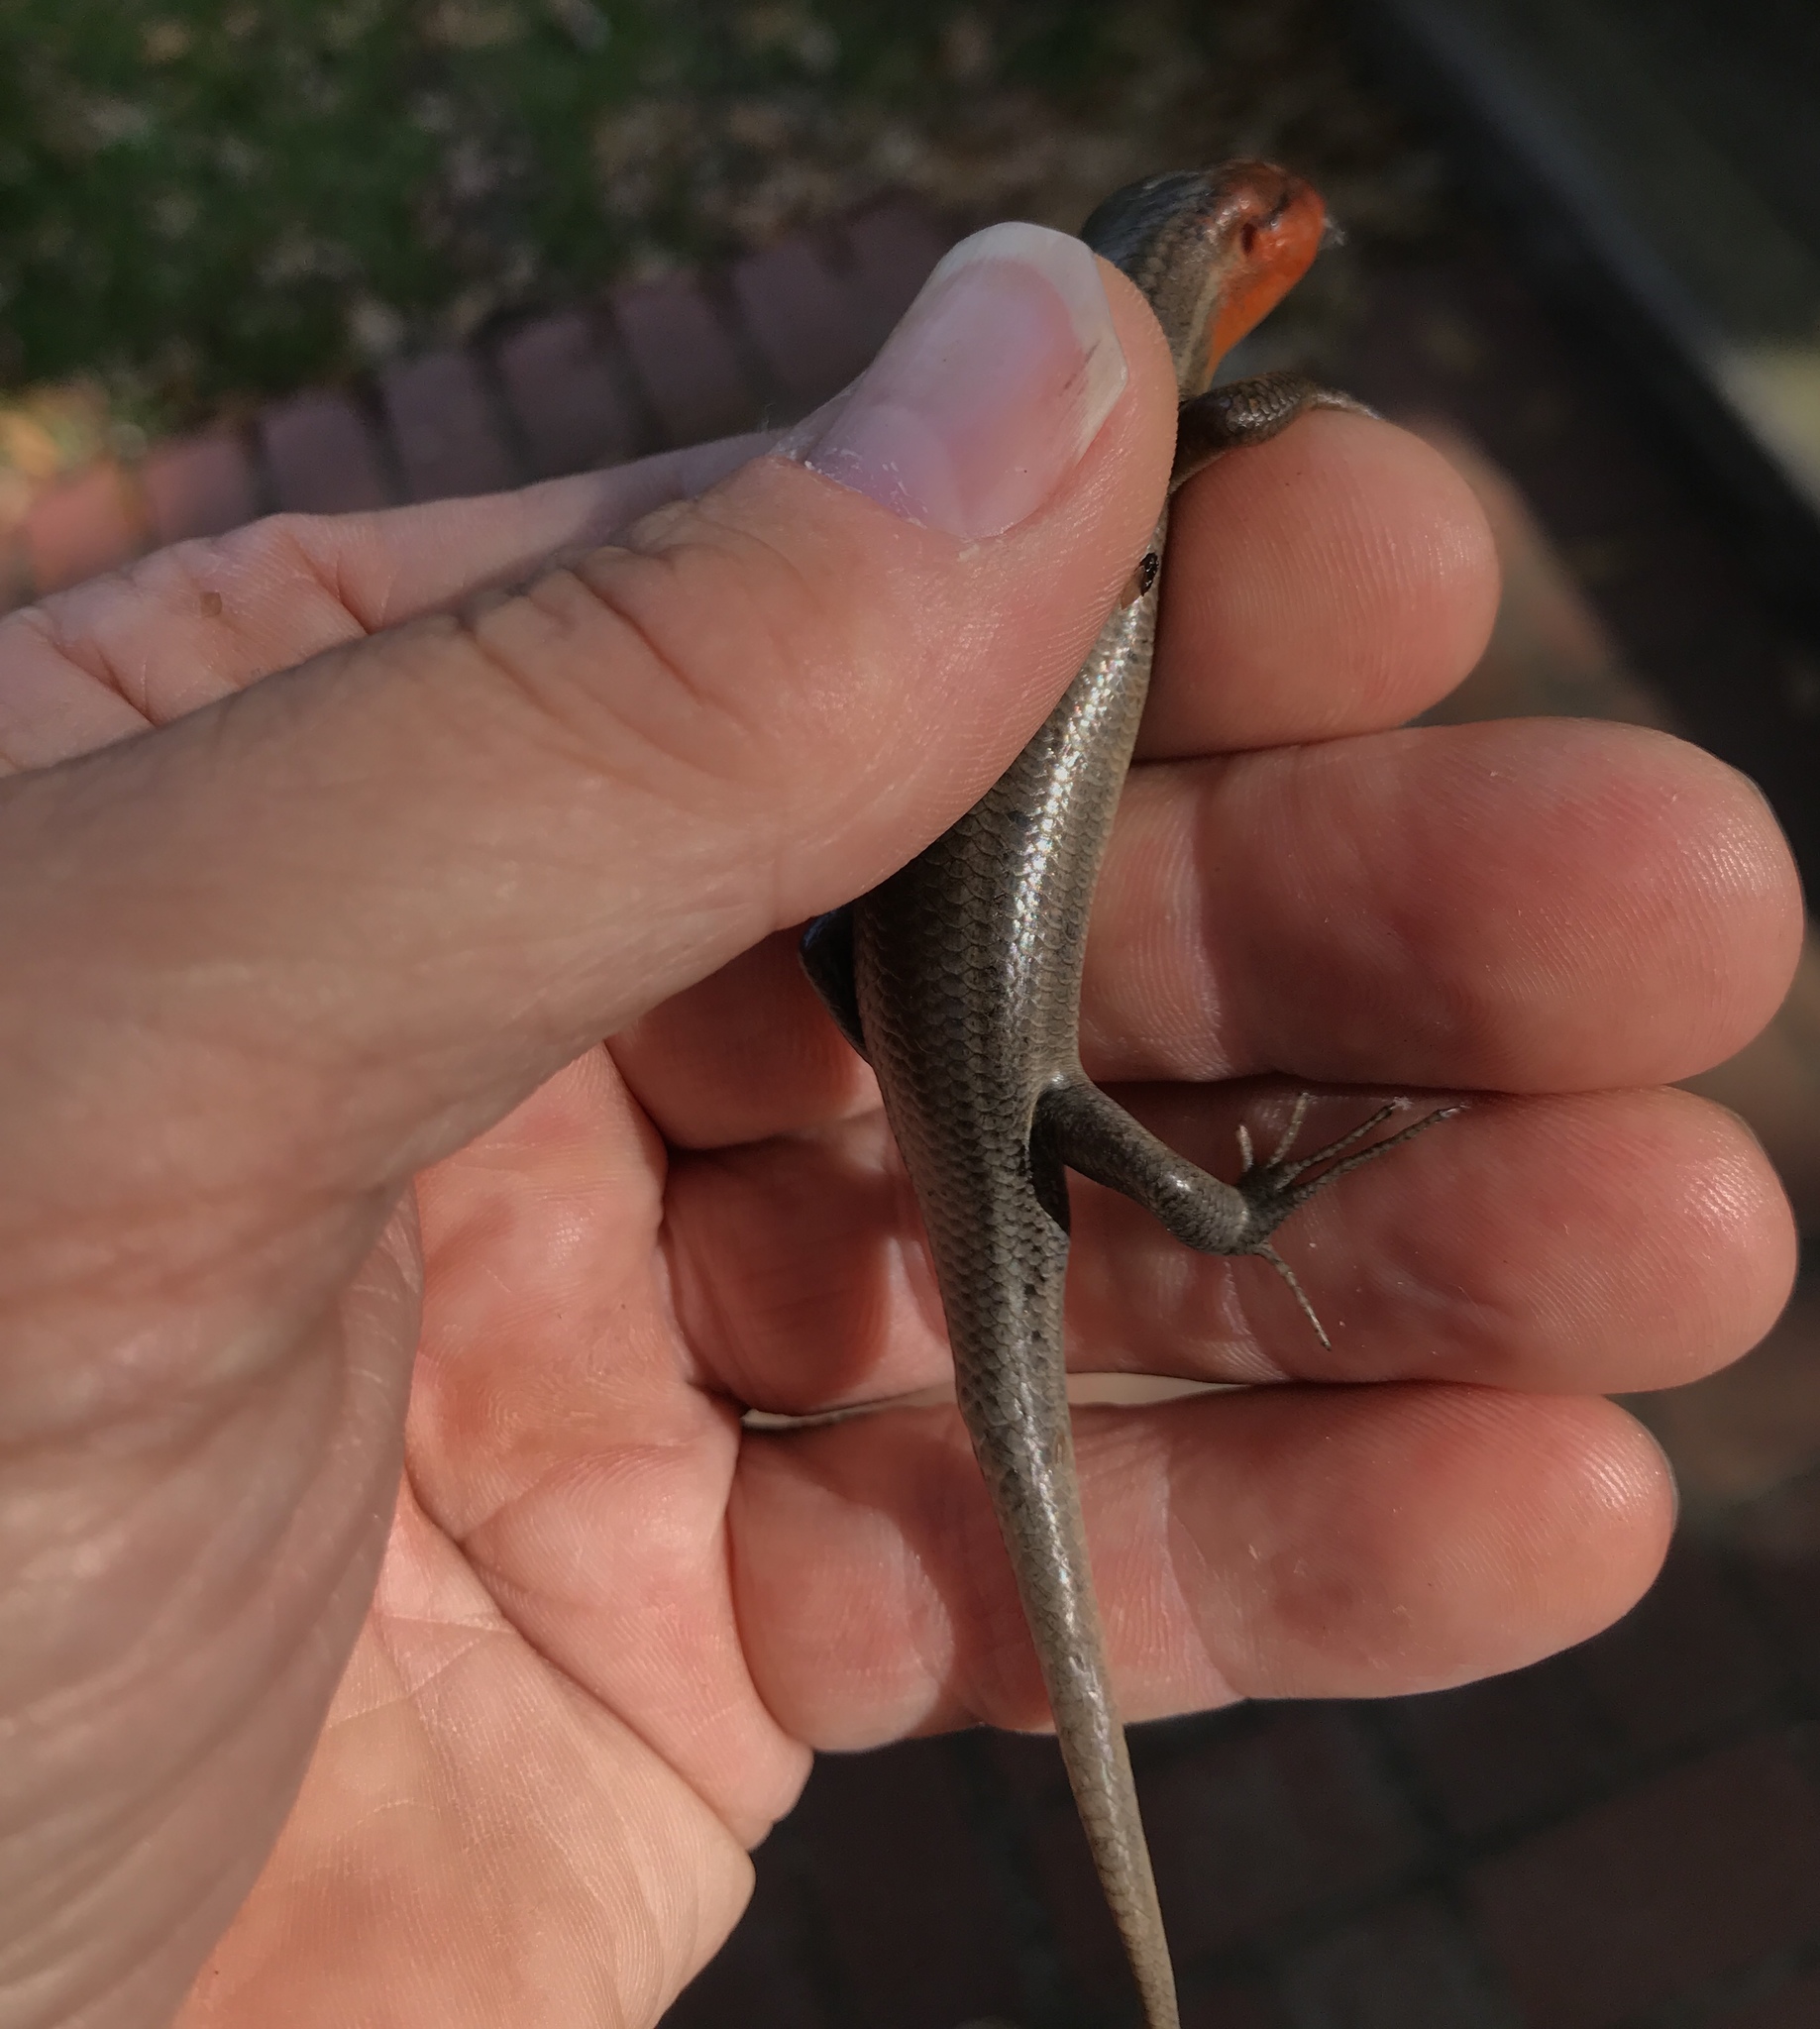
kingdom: Animalia
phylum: Chordata
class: Squamata
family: Scincidae
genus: Plestiodon
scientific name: Plestiodon fasciatus
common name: Five-lined skink
